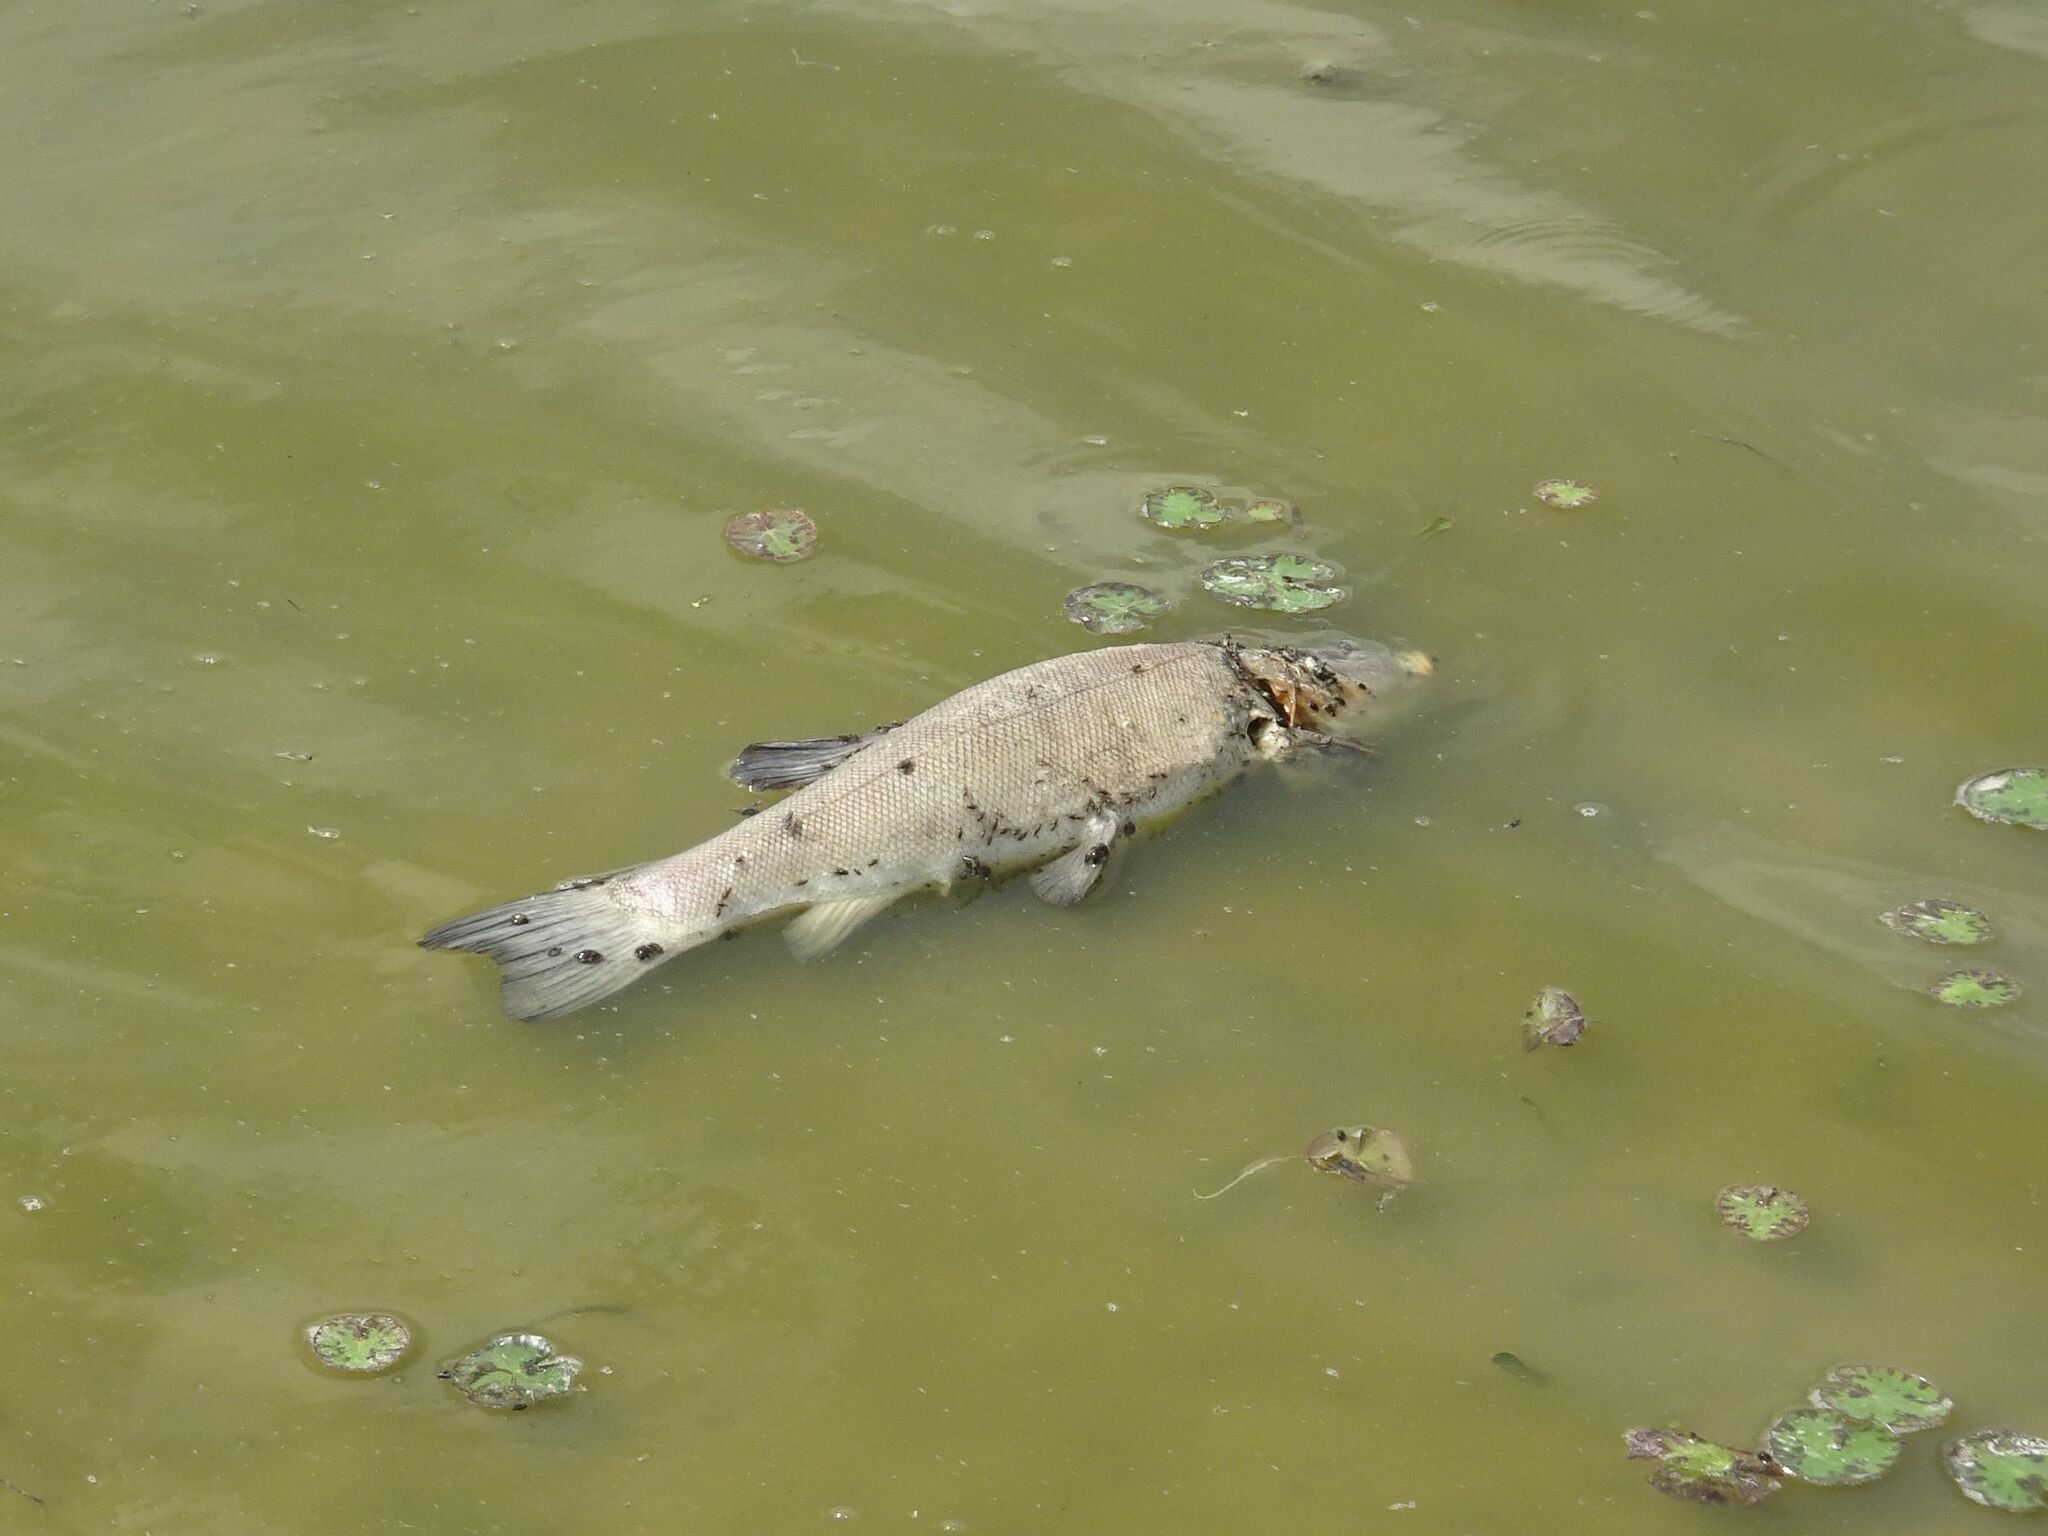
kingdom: Animalia
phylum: Chordata
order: Cypriniformes
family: Cyprinidae
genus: Tinca
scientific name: Tinca tinca
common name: Tench
